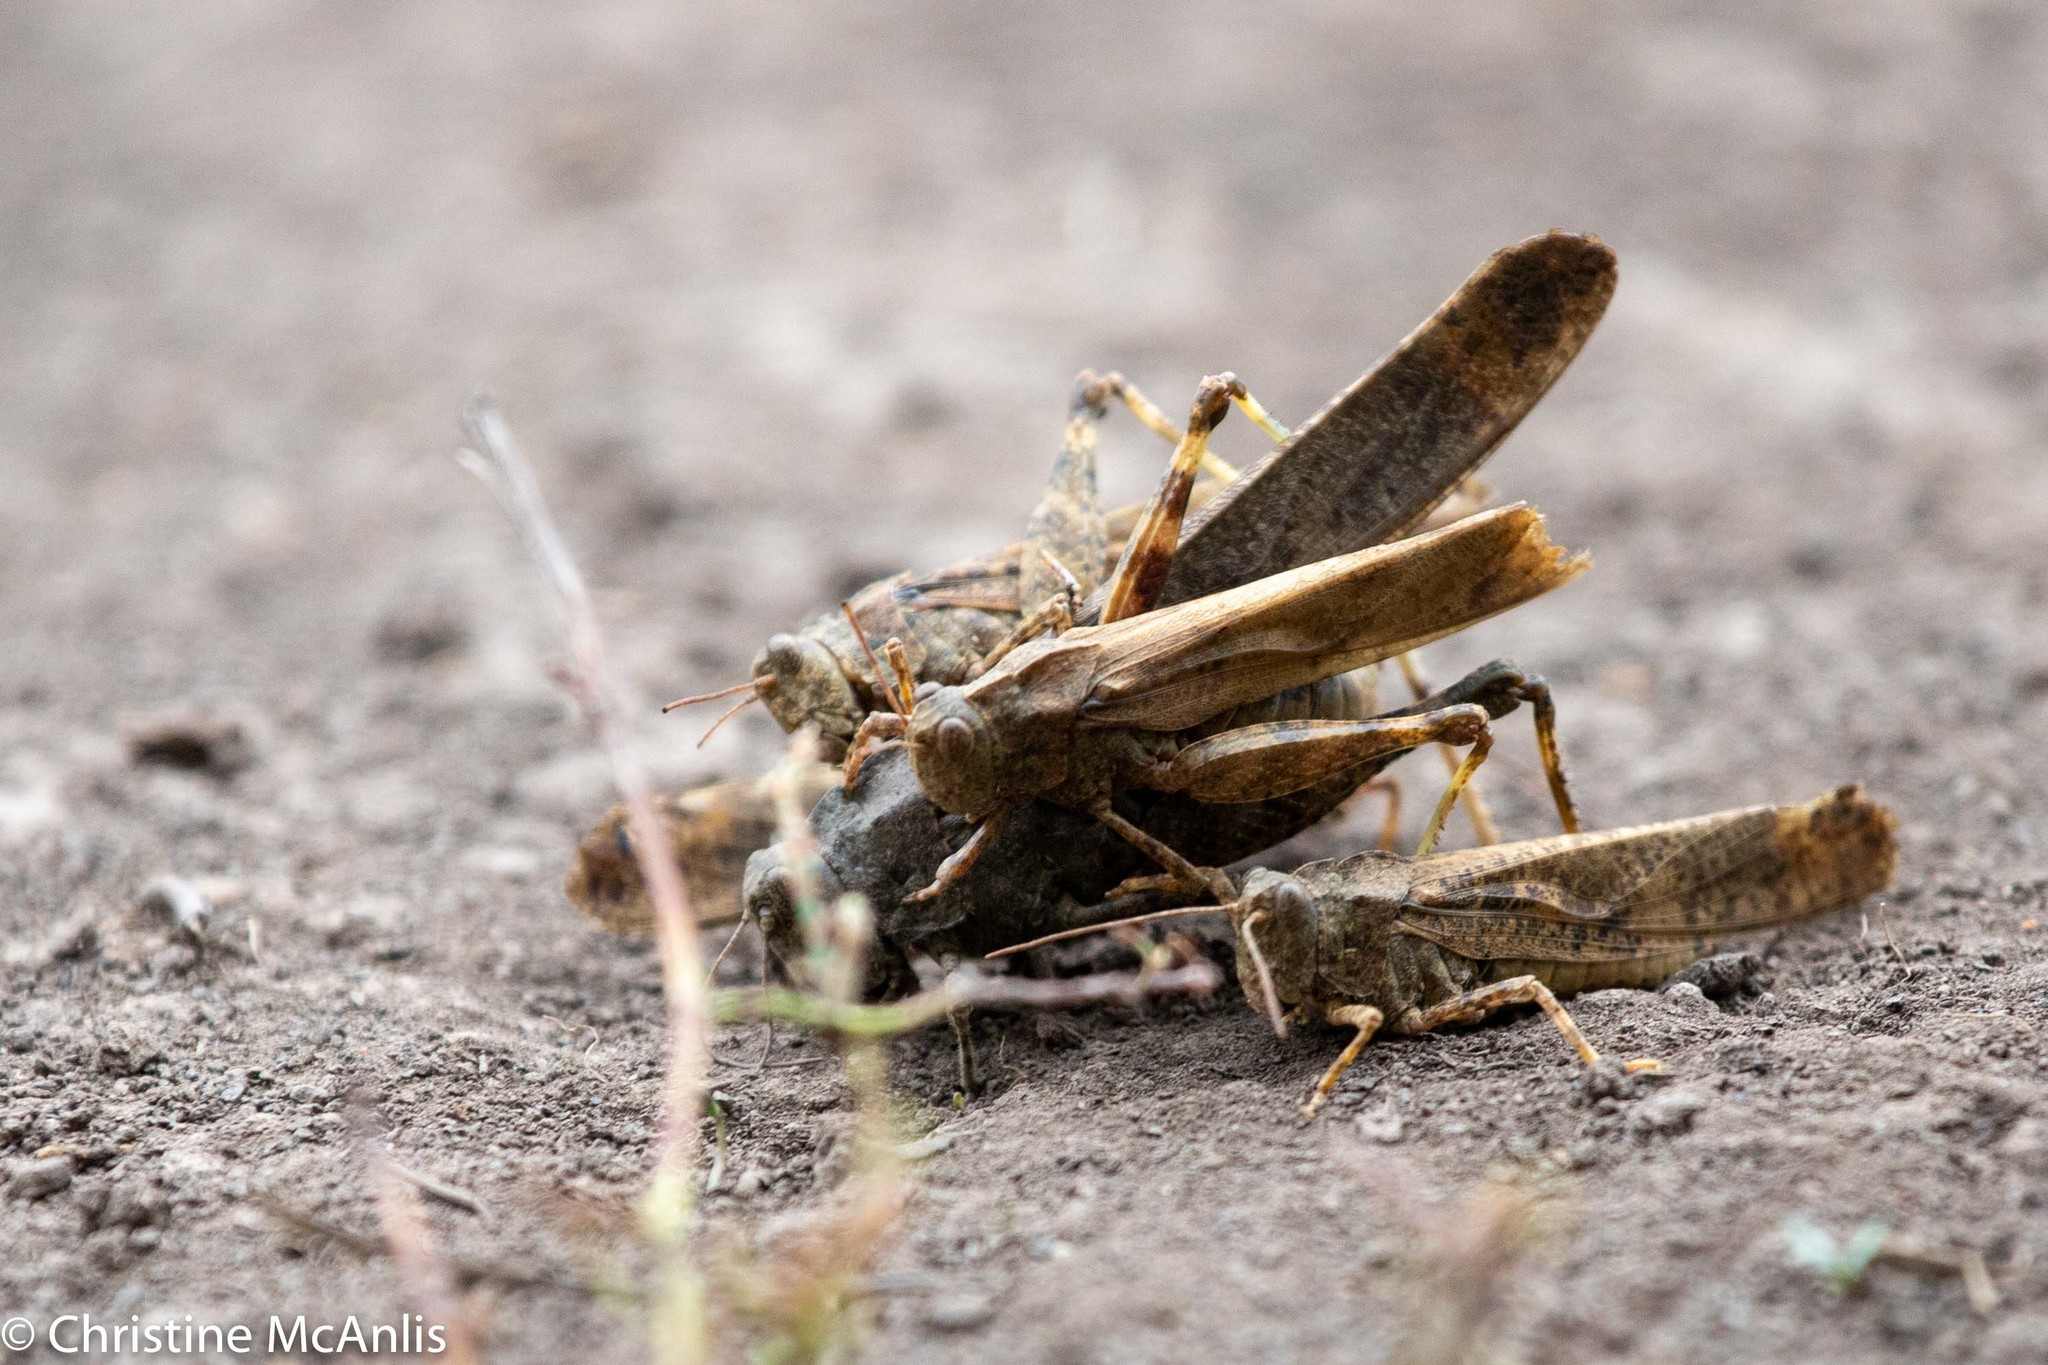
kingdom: Animalia
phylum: Arthropoda
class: Insecta
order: Orthoptera
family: Acrididae
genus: Dissosteira
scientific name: Dissosteira carolina
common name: Carolina grasshopper
